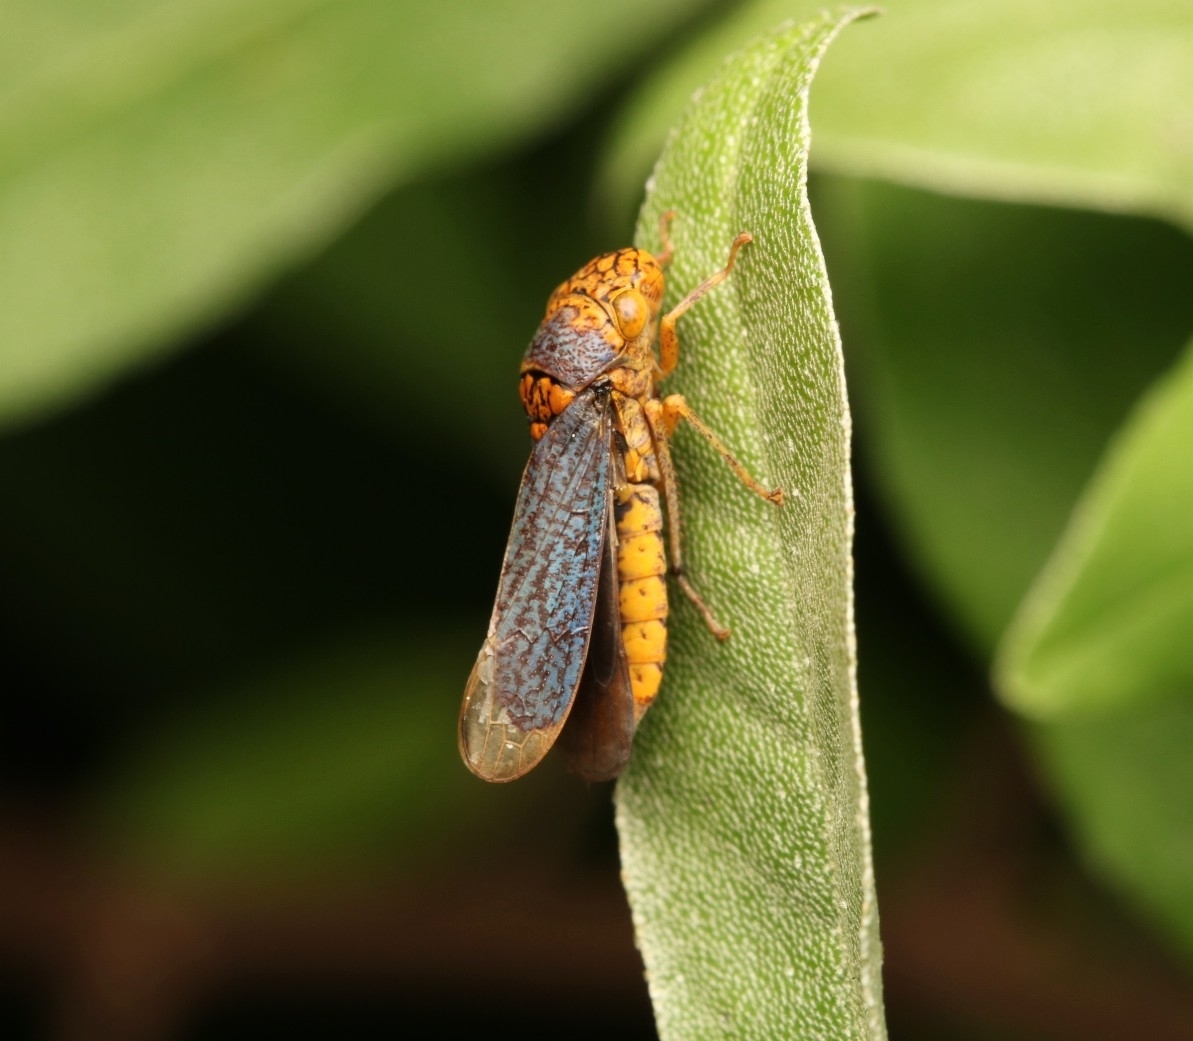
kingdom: Animalia
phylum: Arthropoda
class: Insecta
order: Hemiptera
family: Cicadellidae
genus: Oncometopia
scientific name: Oncometopia orbona
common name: Broad-headed sharpshooter
